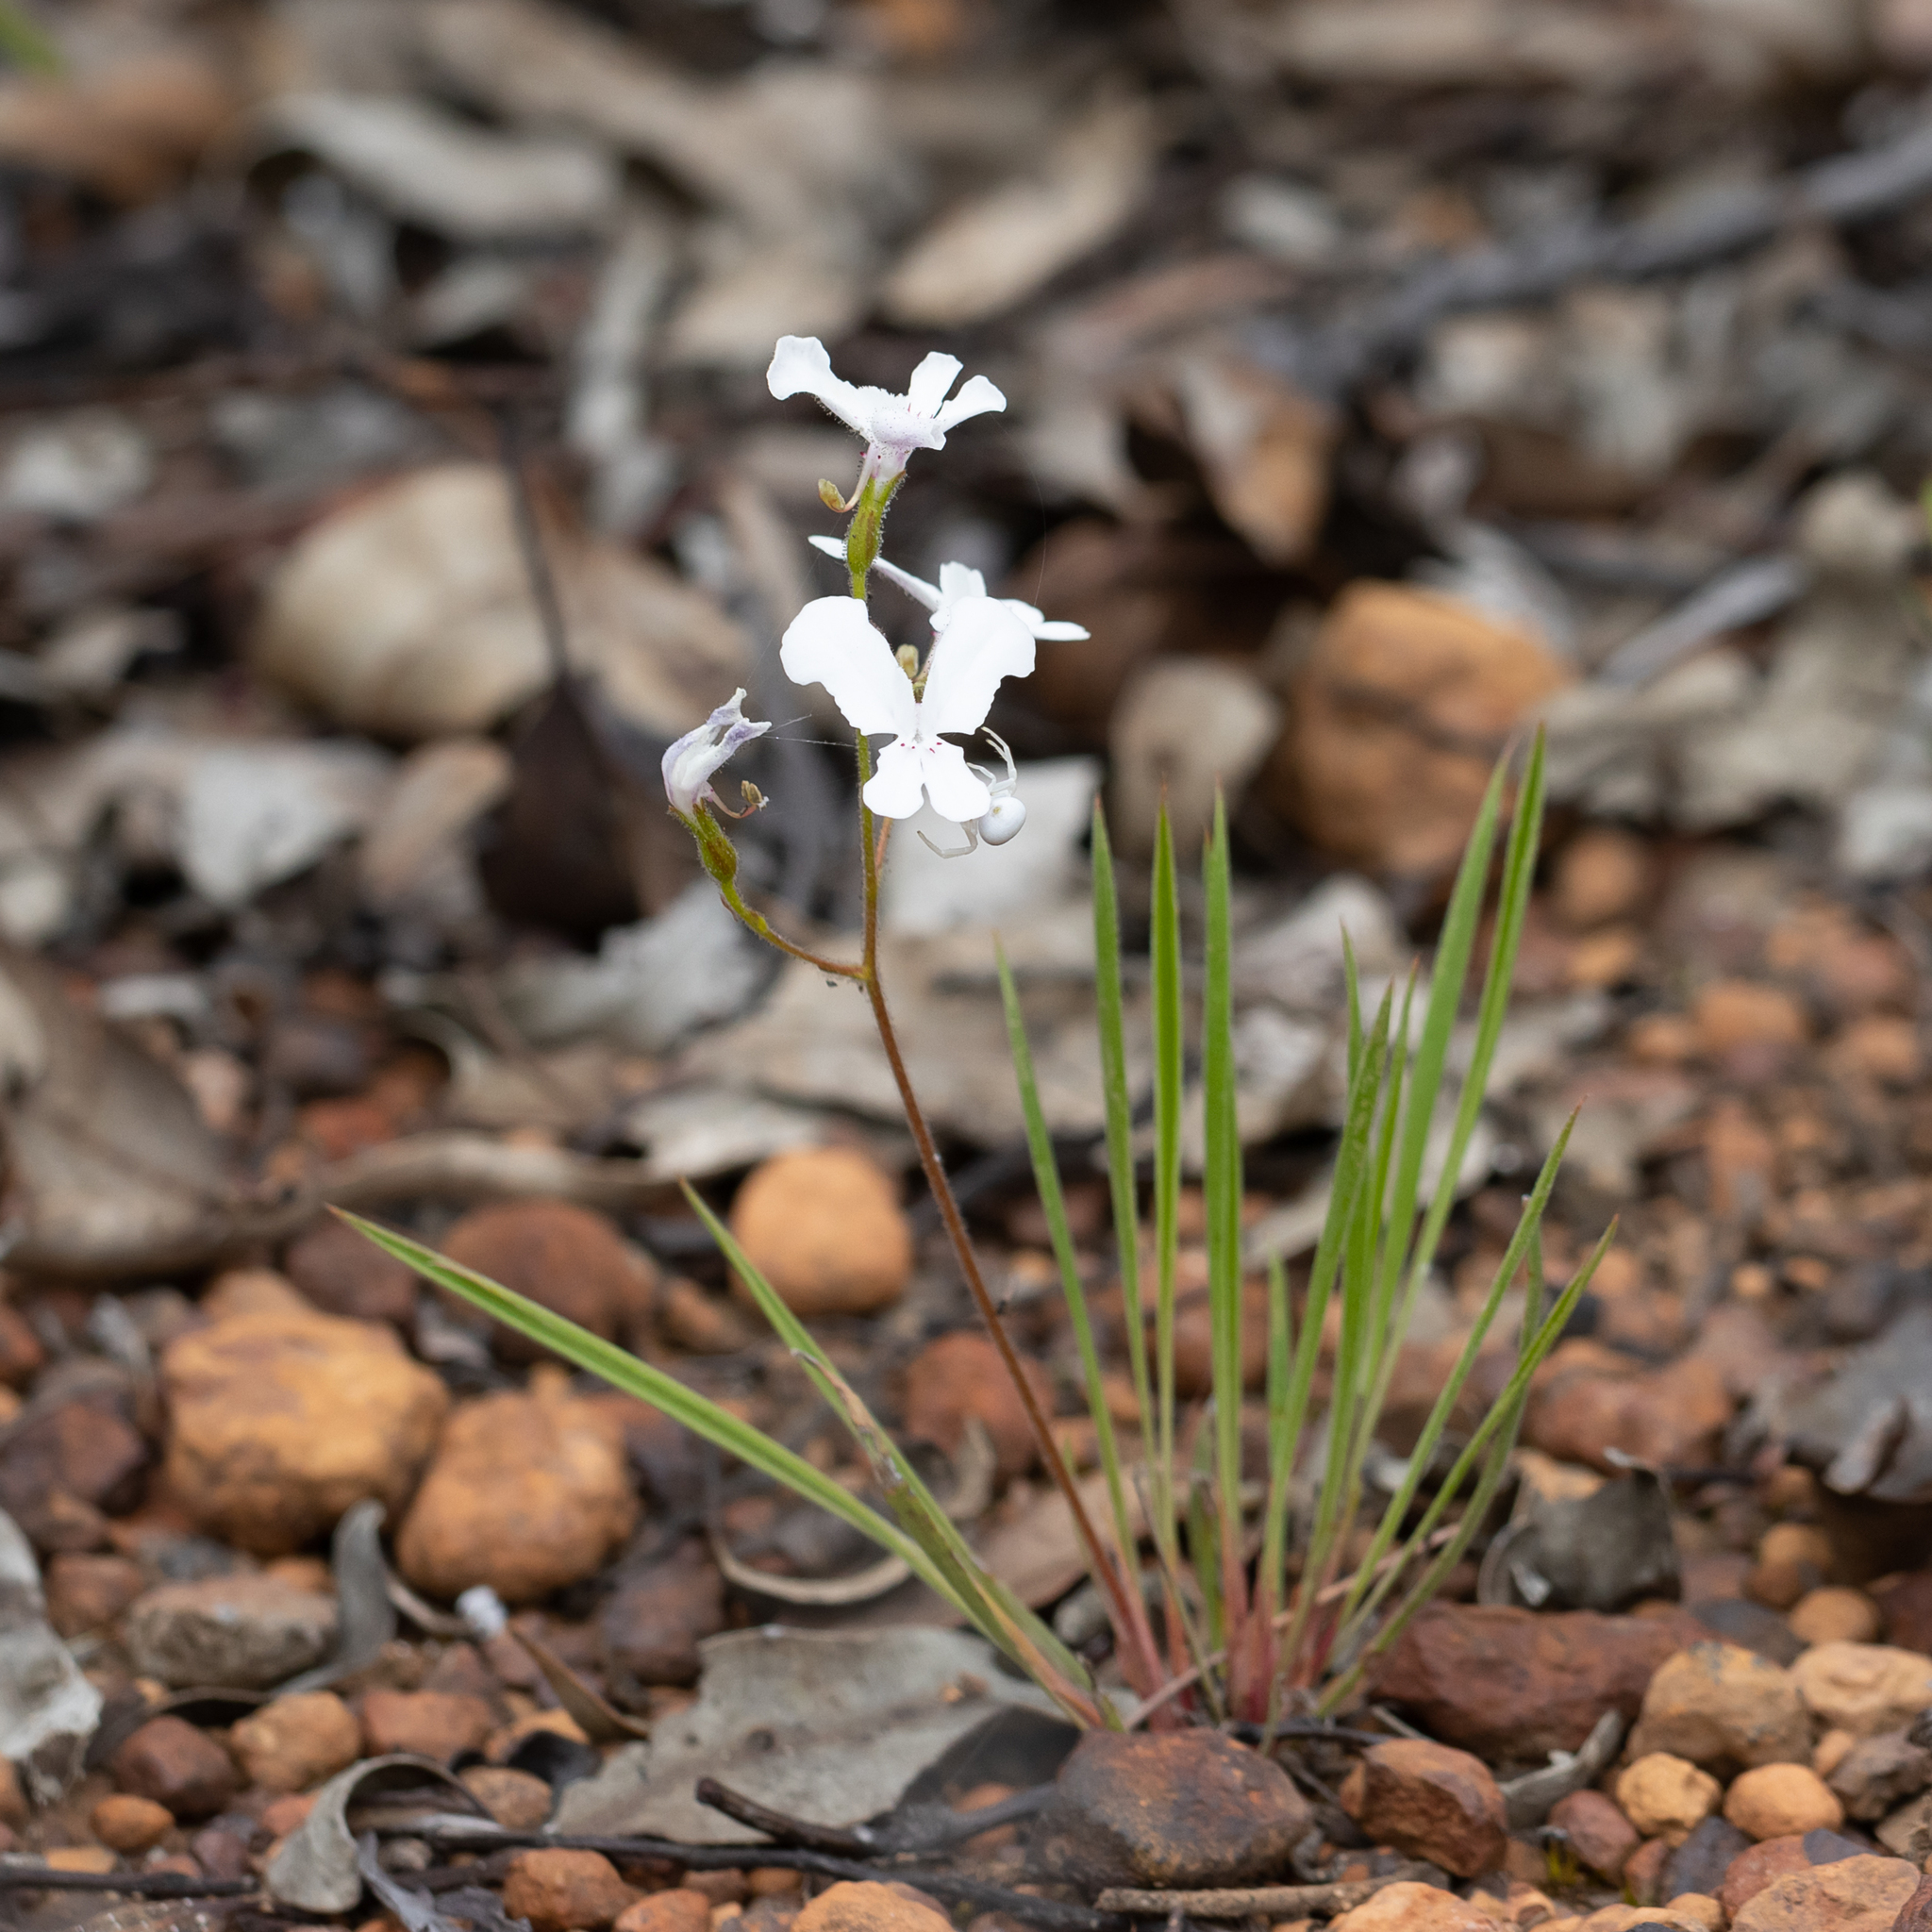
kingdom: Plantae
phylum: Tracheophyta
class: Magnoliopsida
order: Asterales
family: Stylidiaceae
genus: Stylidium
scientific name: Stylidium caricifolium
